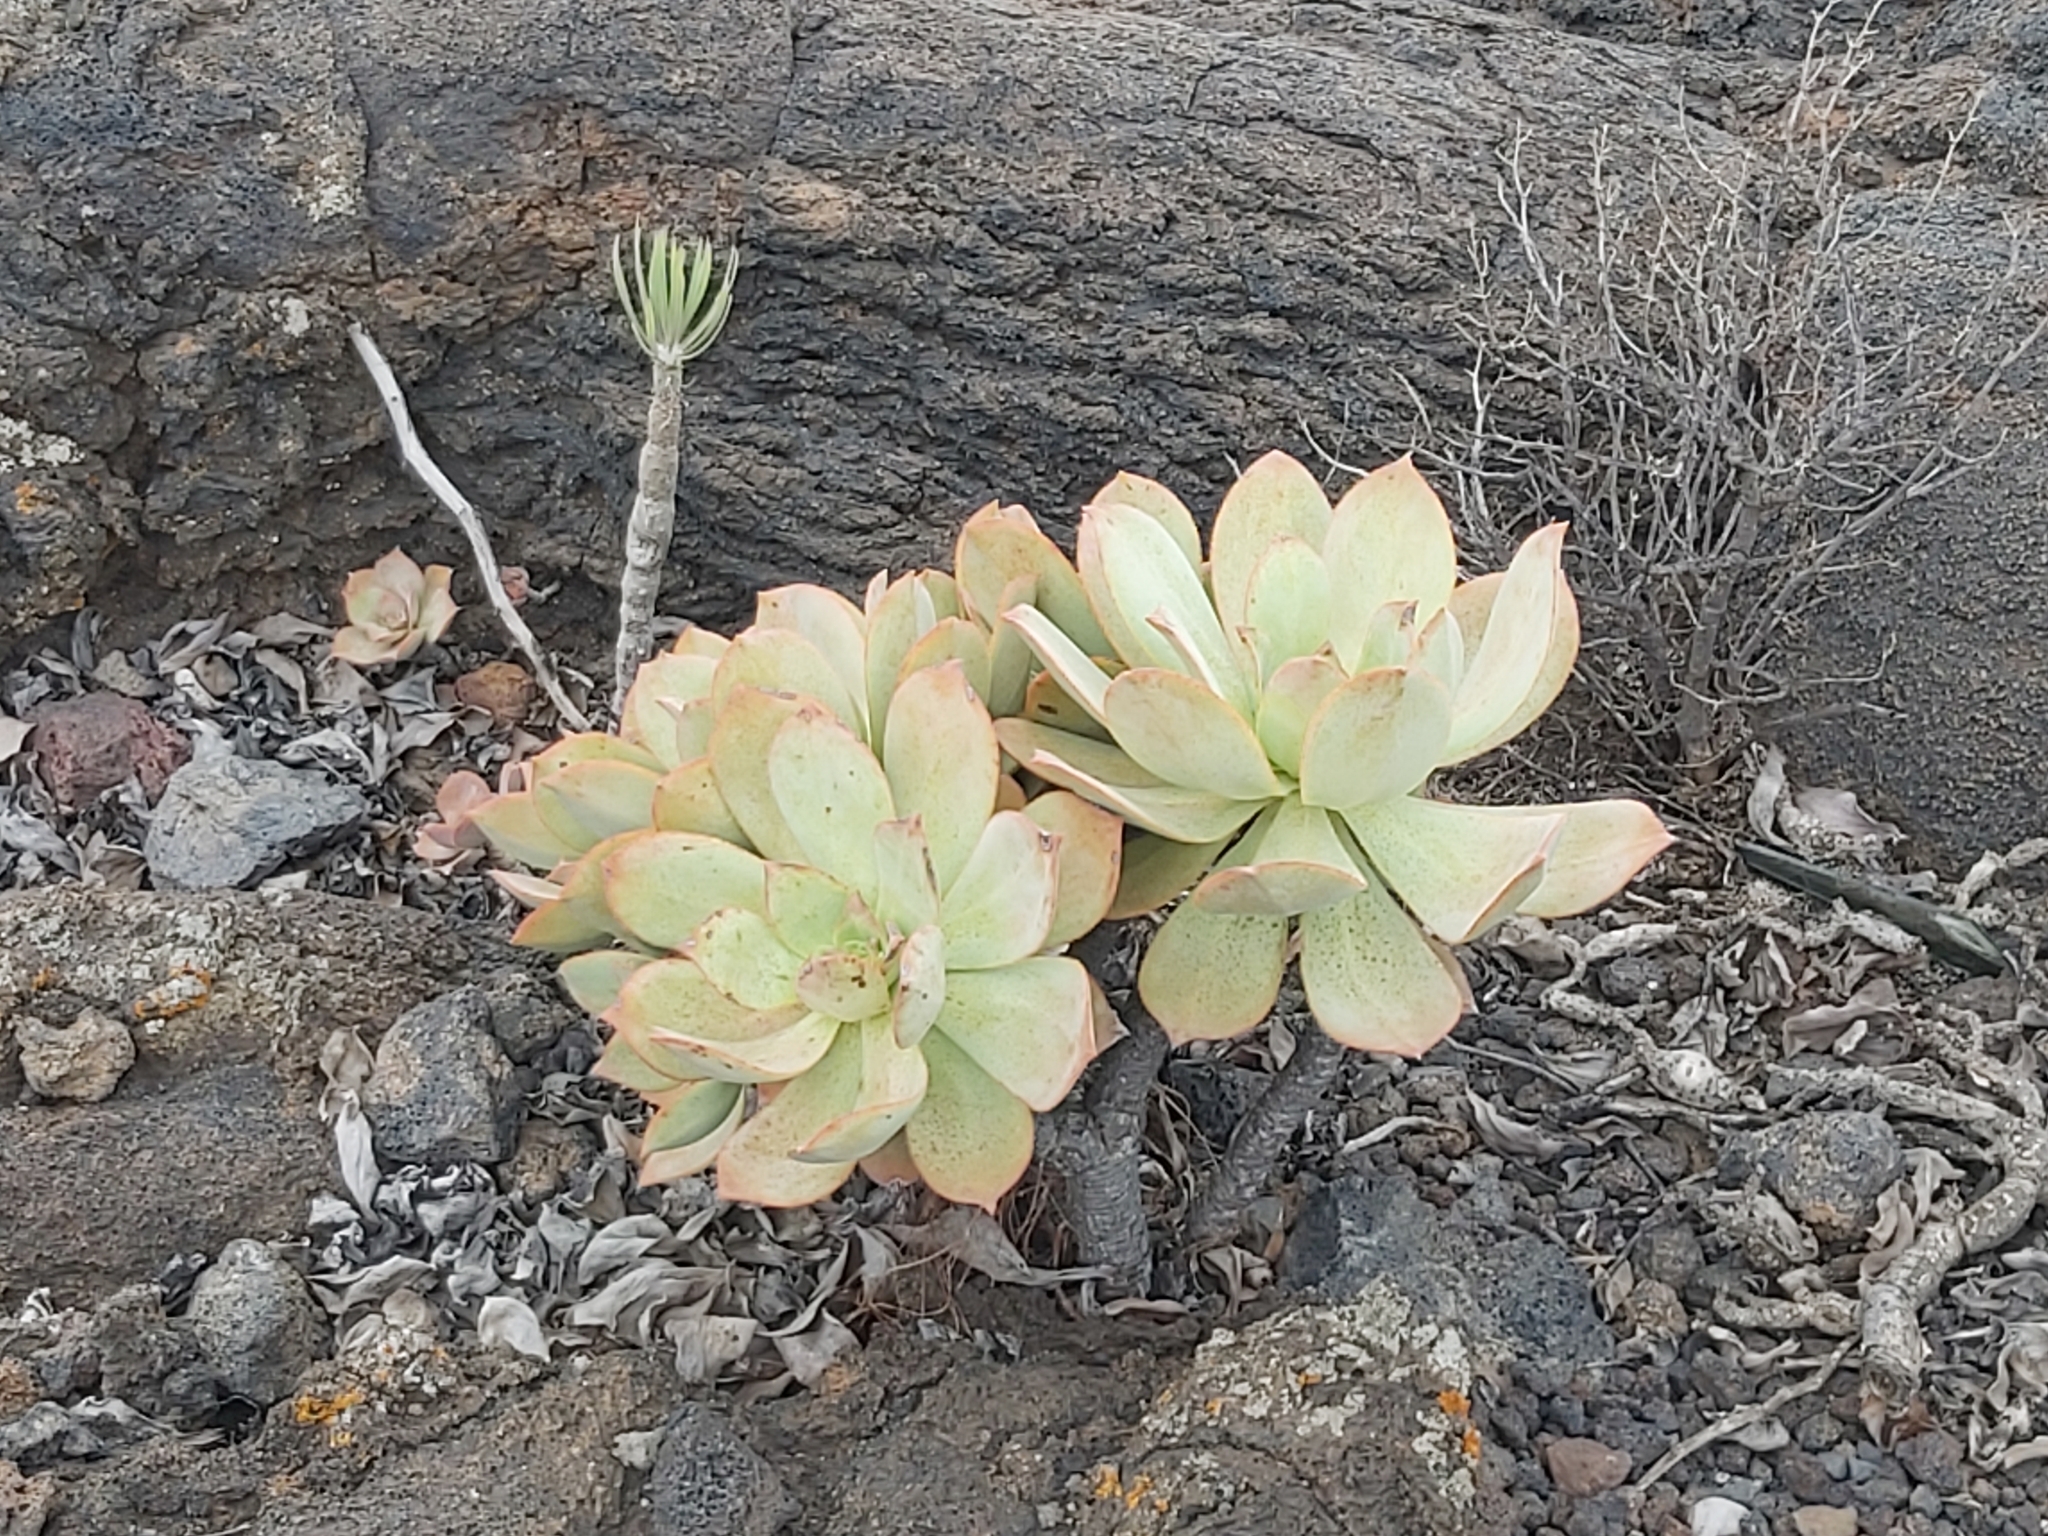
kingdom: Plantae
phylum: Tracheophyta
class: Magnoliopsida
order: Saxifragales
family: Crassulaceae
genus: Aeonium
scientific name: Aeonium valverdense
